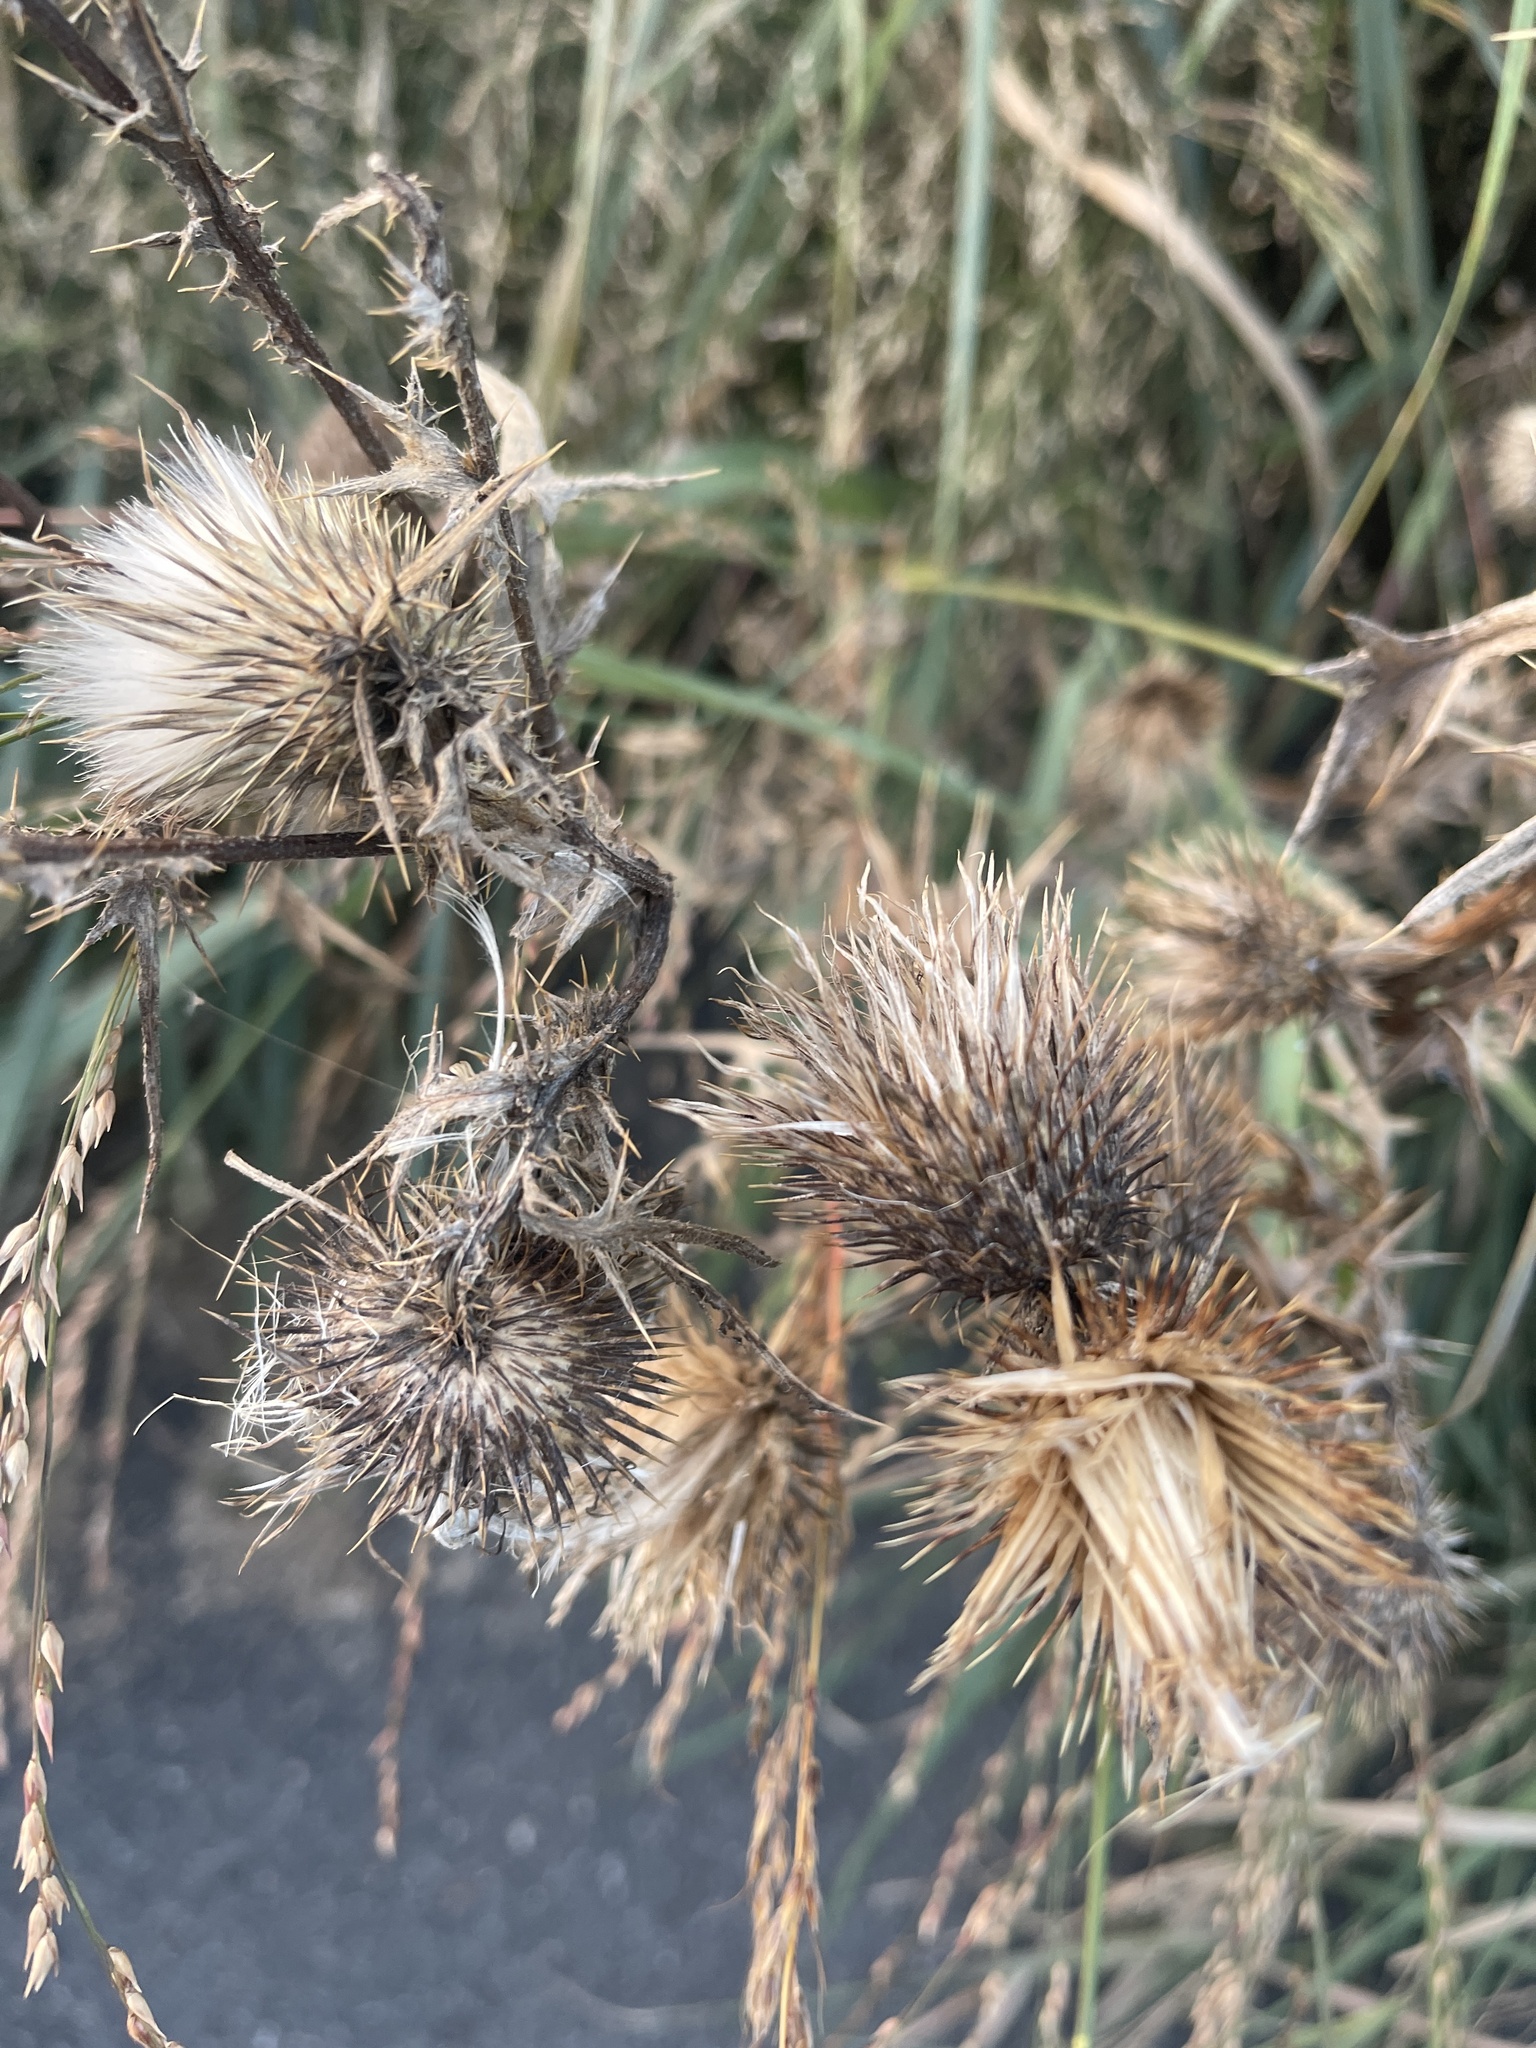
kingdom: Plantae
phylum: Tracheophyta
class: Magnoliopsida
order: Asterales
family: Asteraceae
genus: Cirsium
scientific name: Cirsium vulgare
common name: Bull thistle
